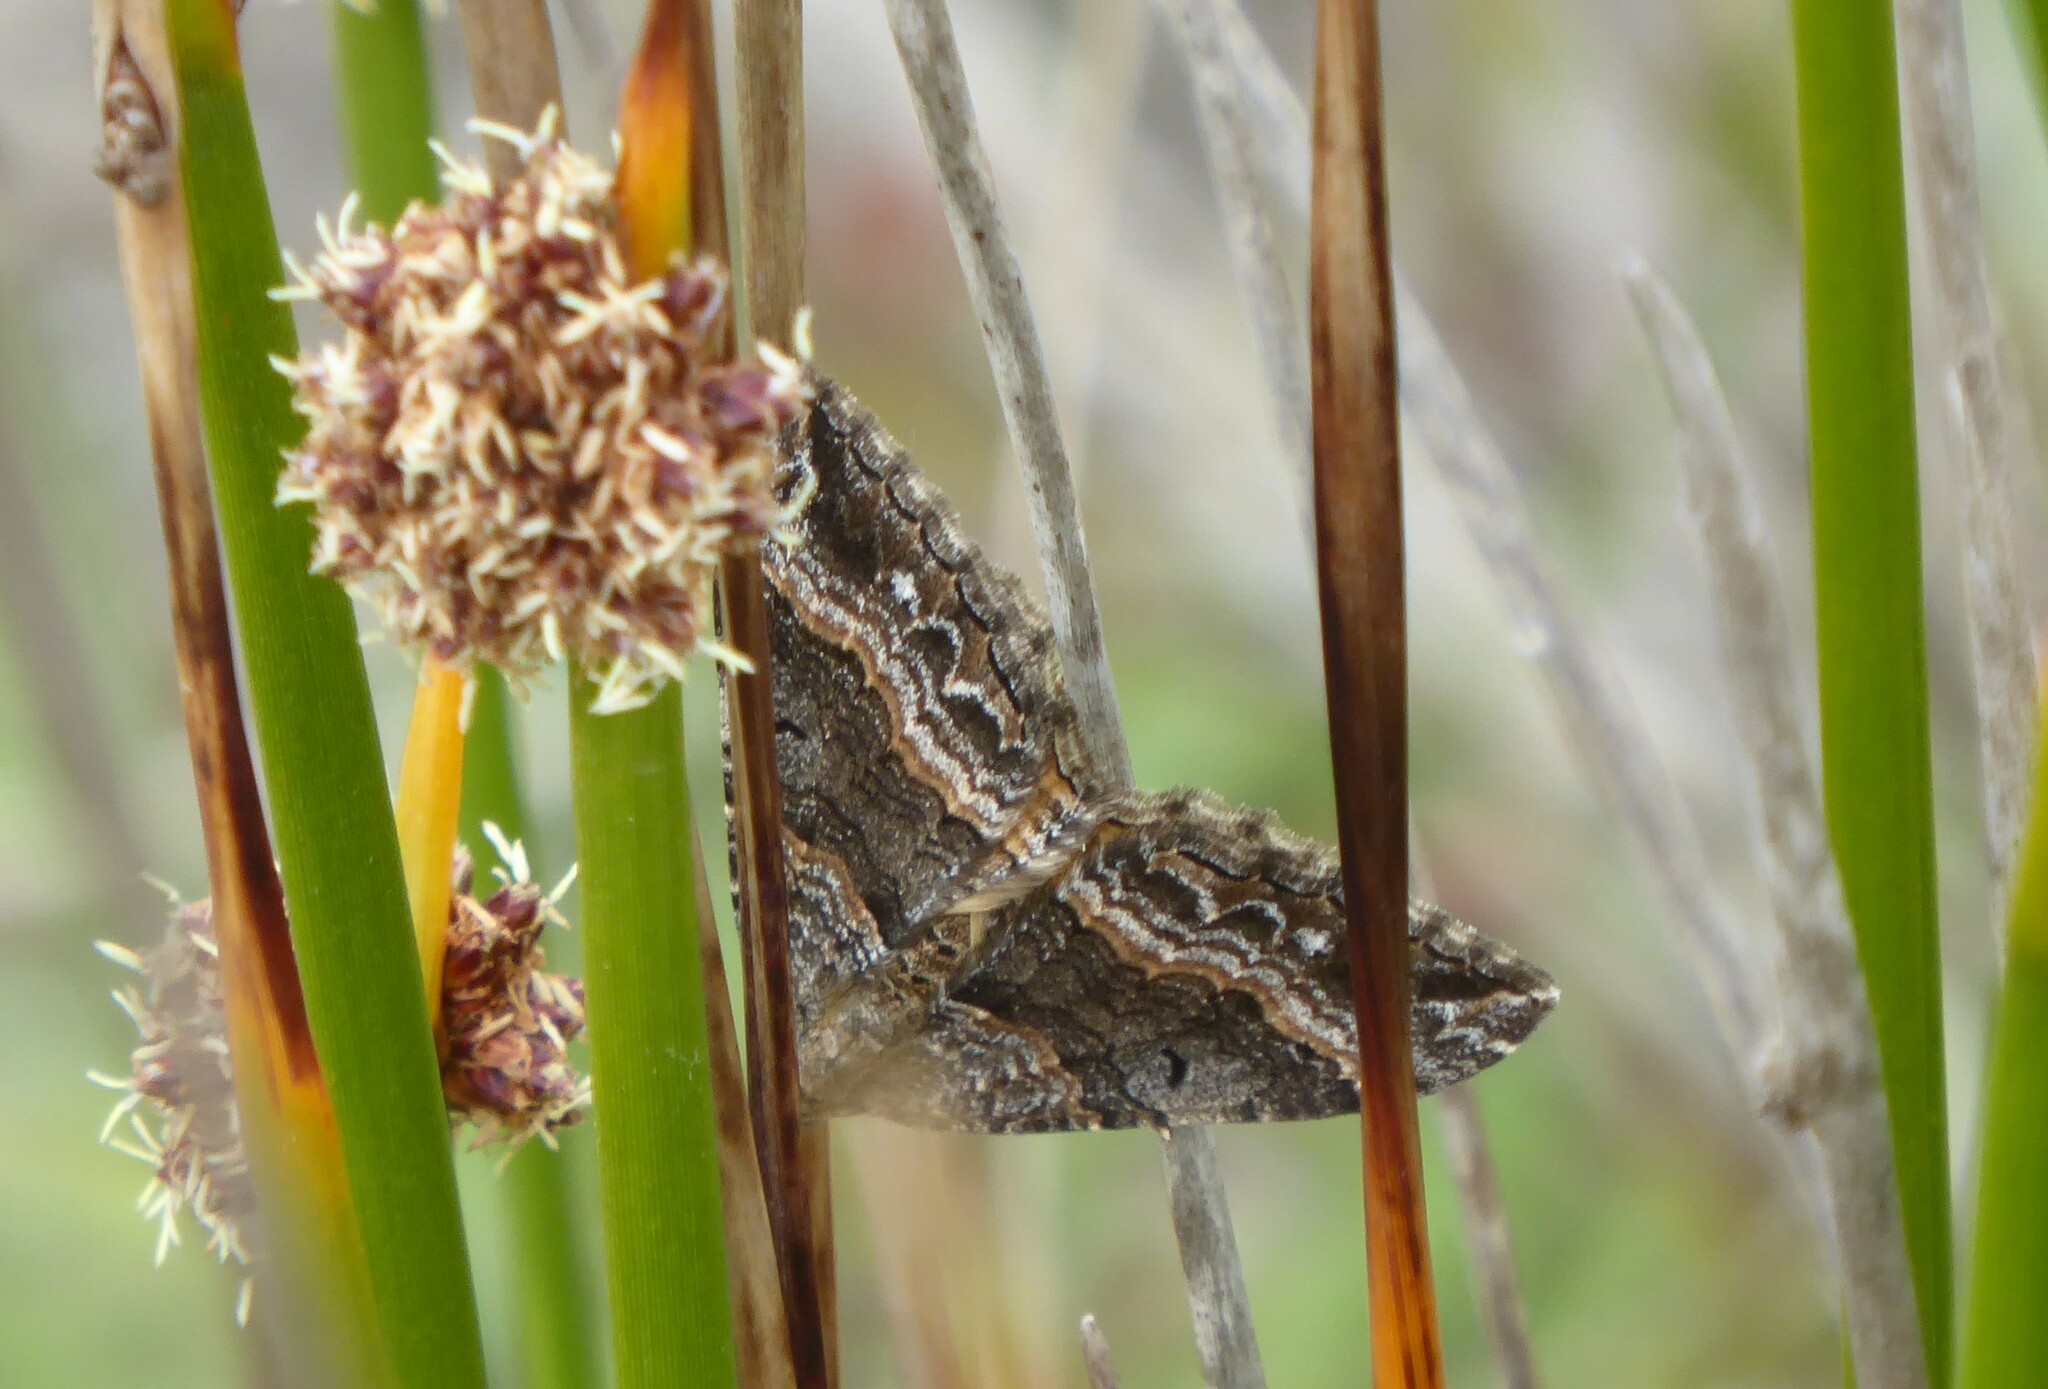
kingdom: Animalia
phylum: Arthropoda
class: Insecta
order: Lepidoptera
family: Geometridae
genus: Hydriomena
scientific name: Hydriomena deltoidata
